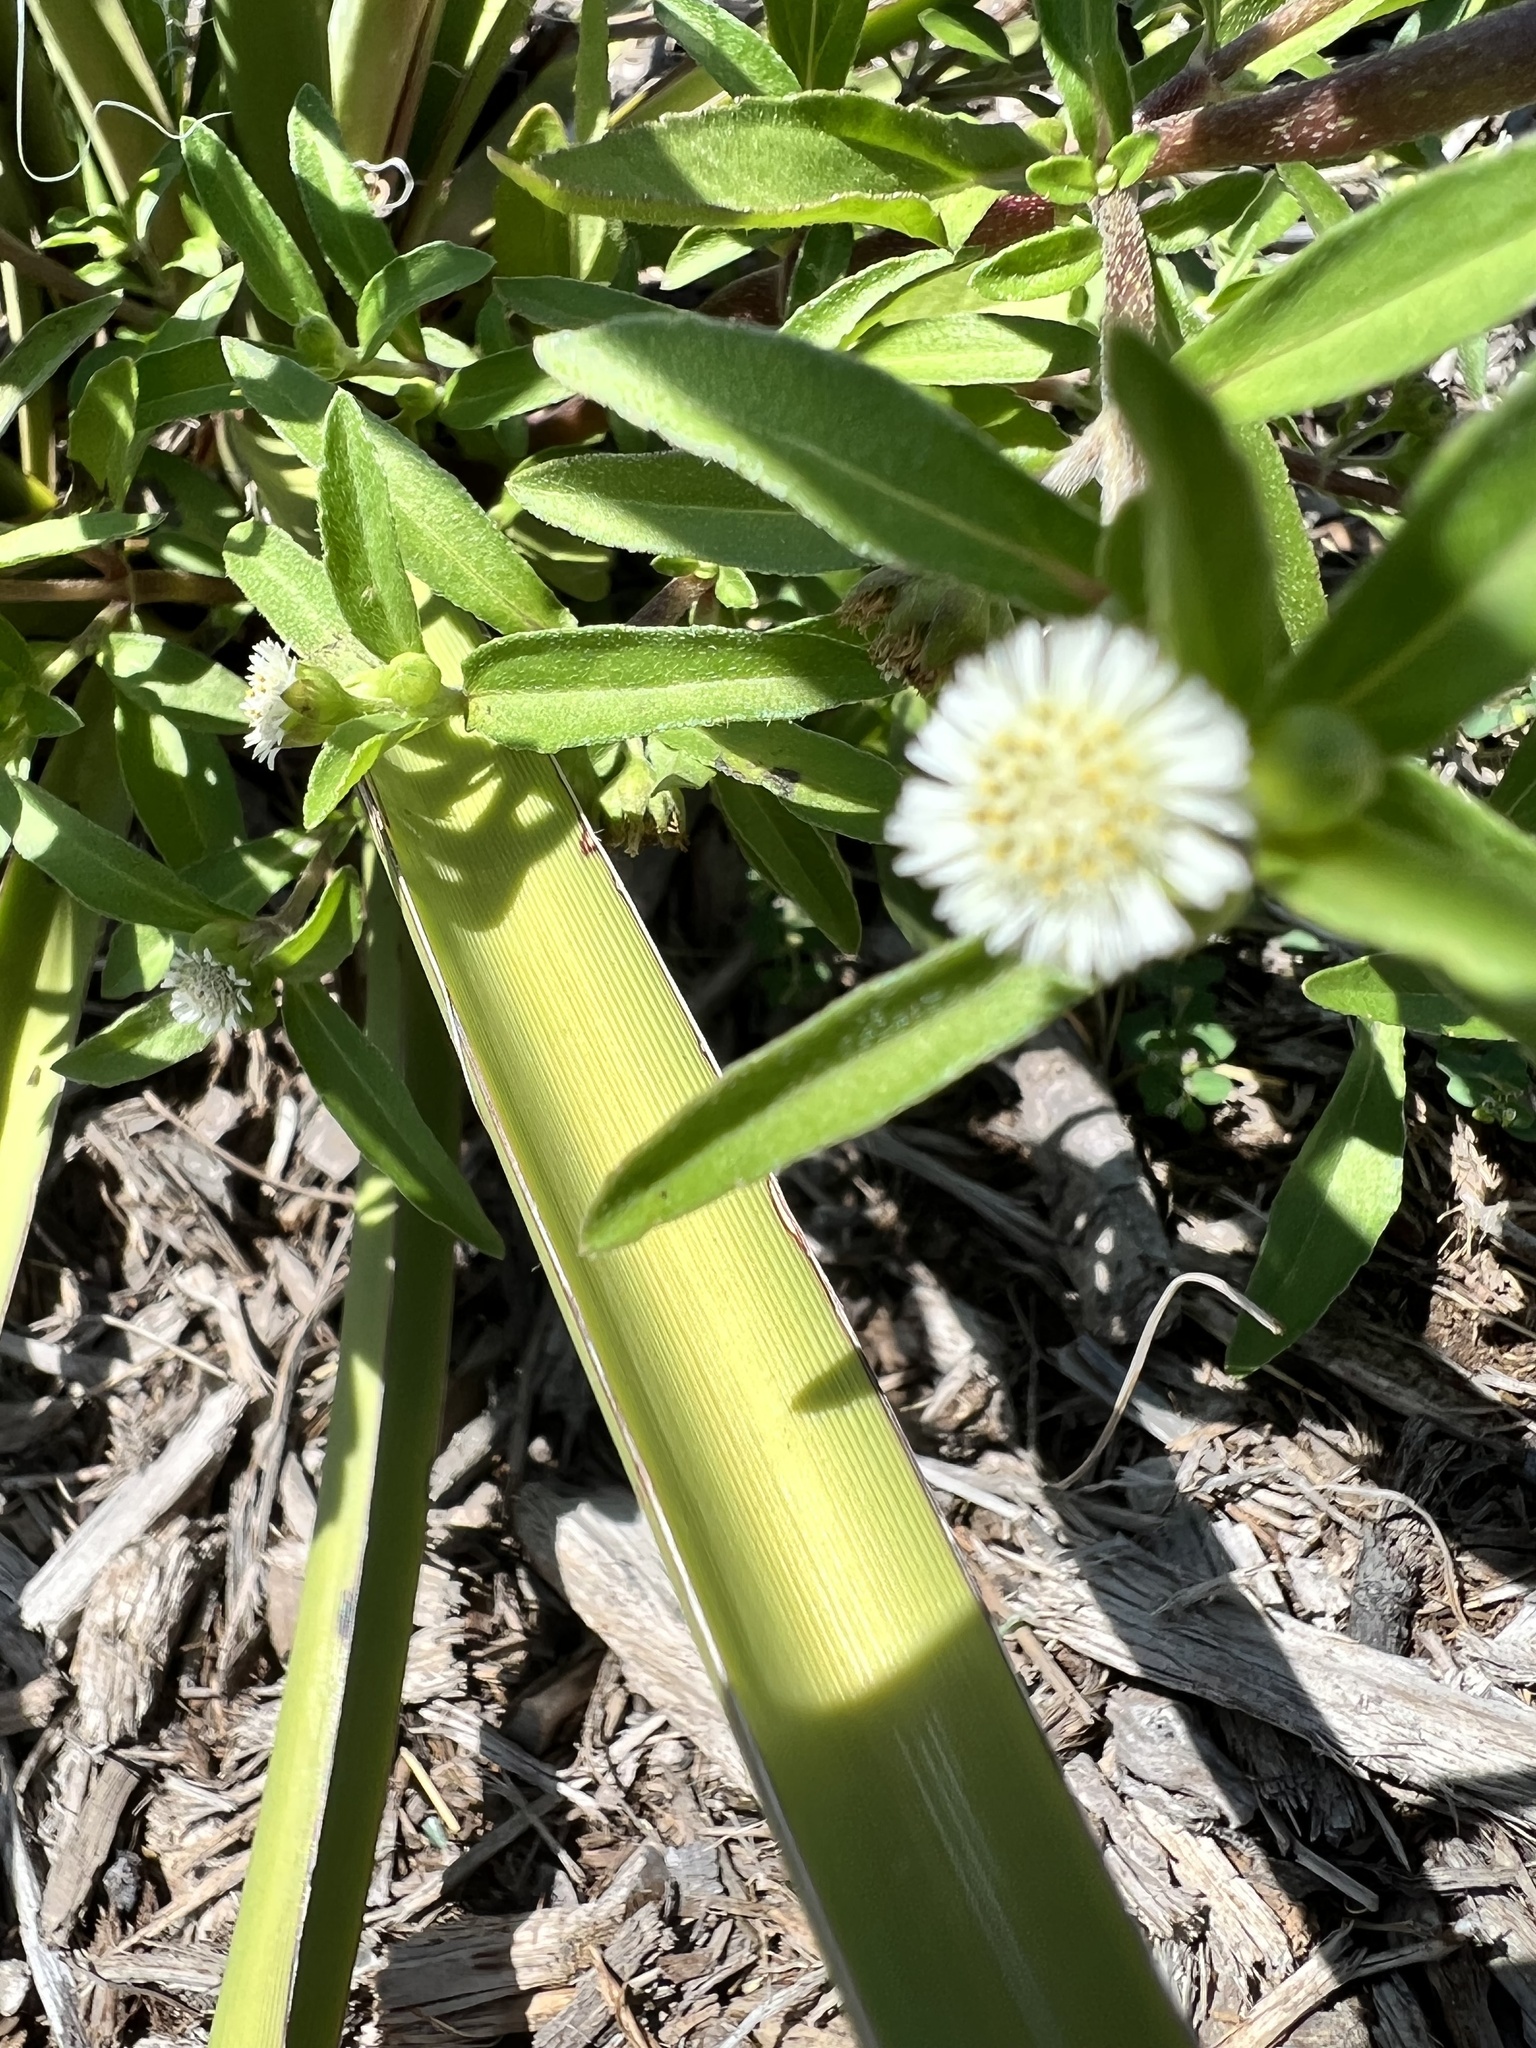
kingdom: Plantae
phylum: Tracheophyta
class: Magnoliopsida
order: Asterales
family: Asteraceae
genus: Eclipta
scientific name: Eclipta prostrata
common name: False daisy
